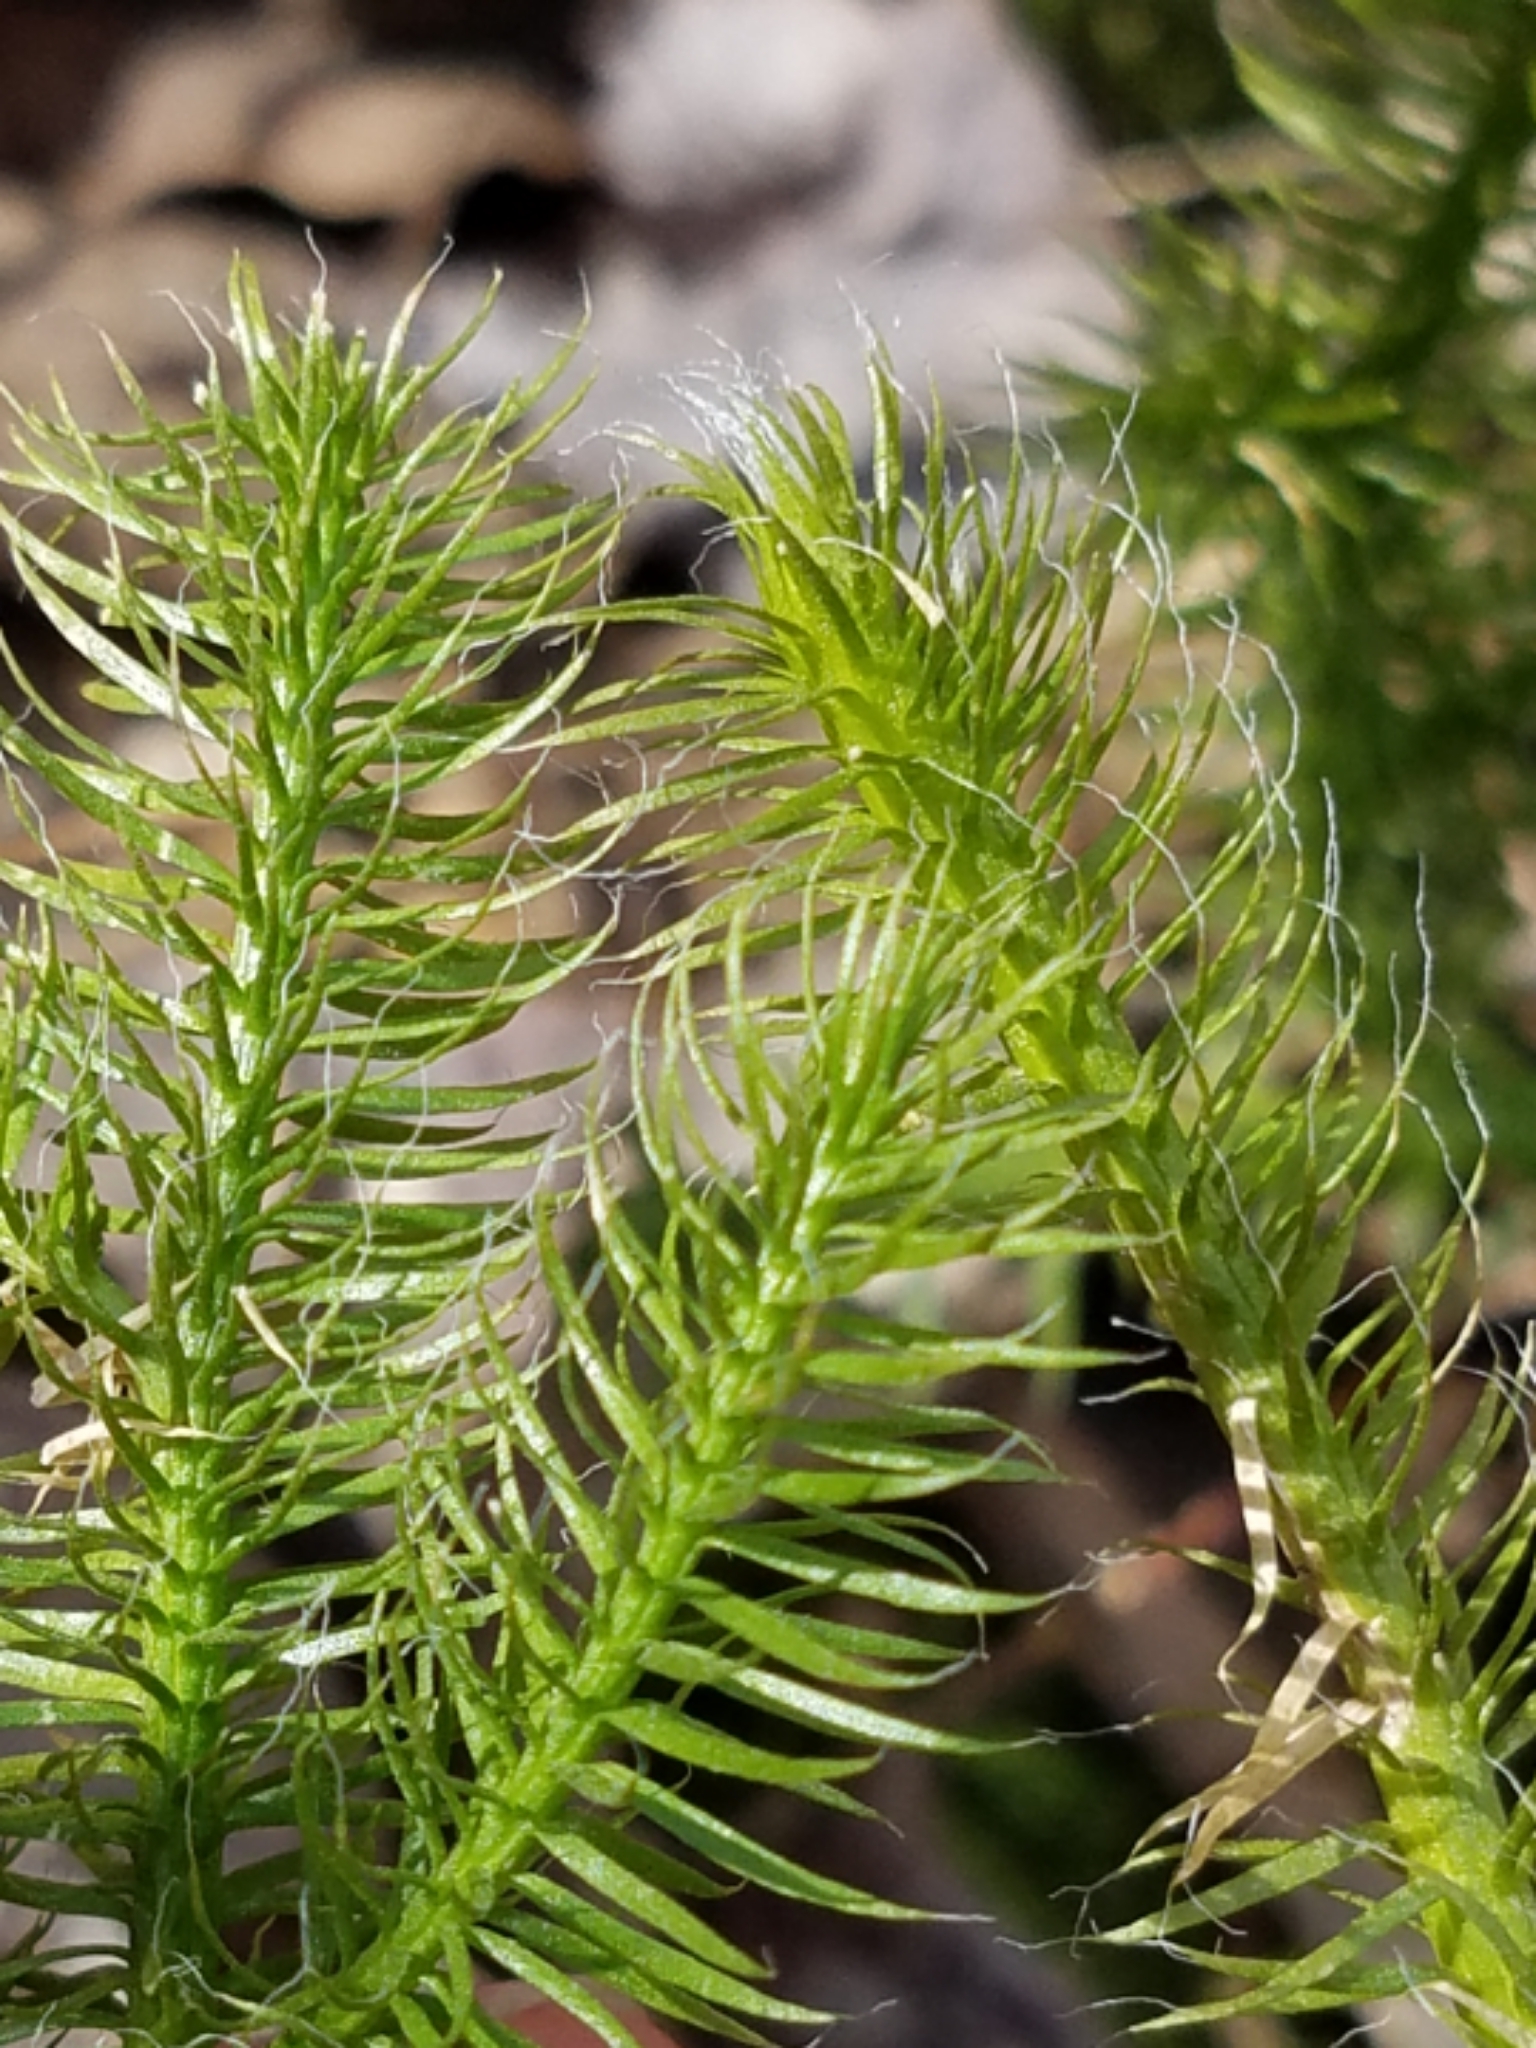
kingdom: Plantae
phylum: Tracheophyta
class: Lycopodiopsida
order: Lycopodiales
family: Lycopodiaceae
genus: Lycopodium
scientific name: Lycopodium clavatum
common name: Stag's-horn clubmoss
